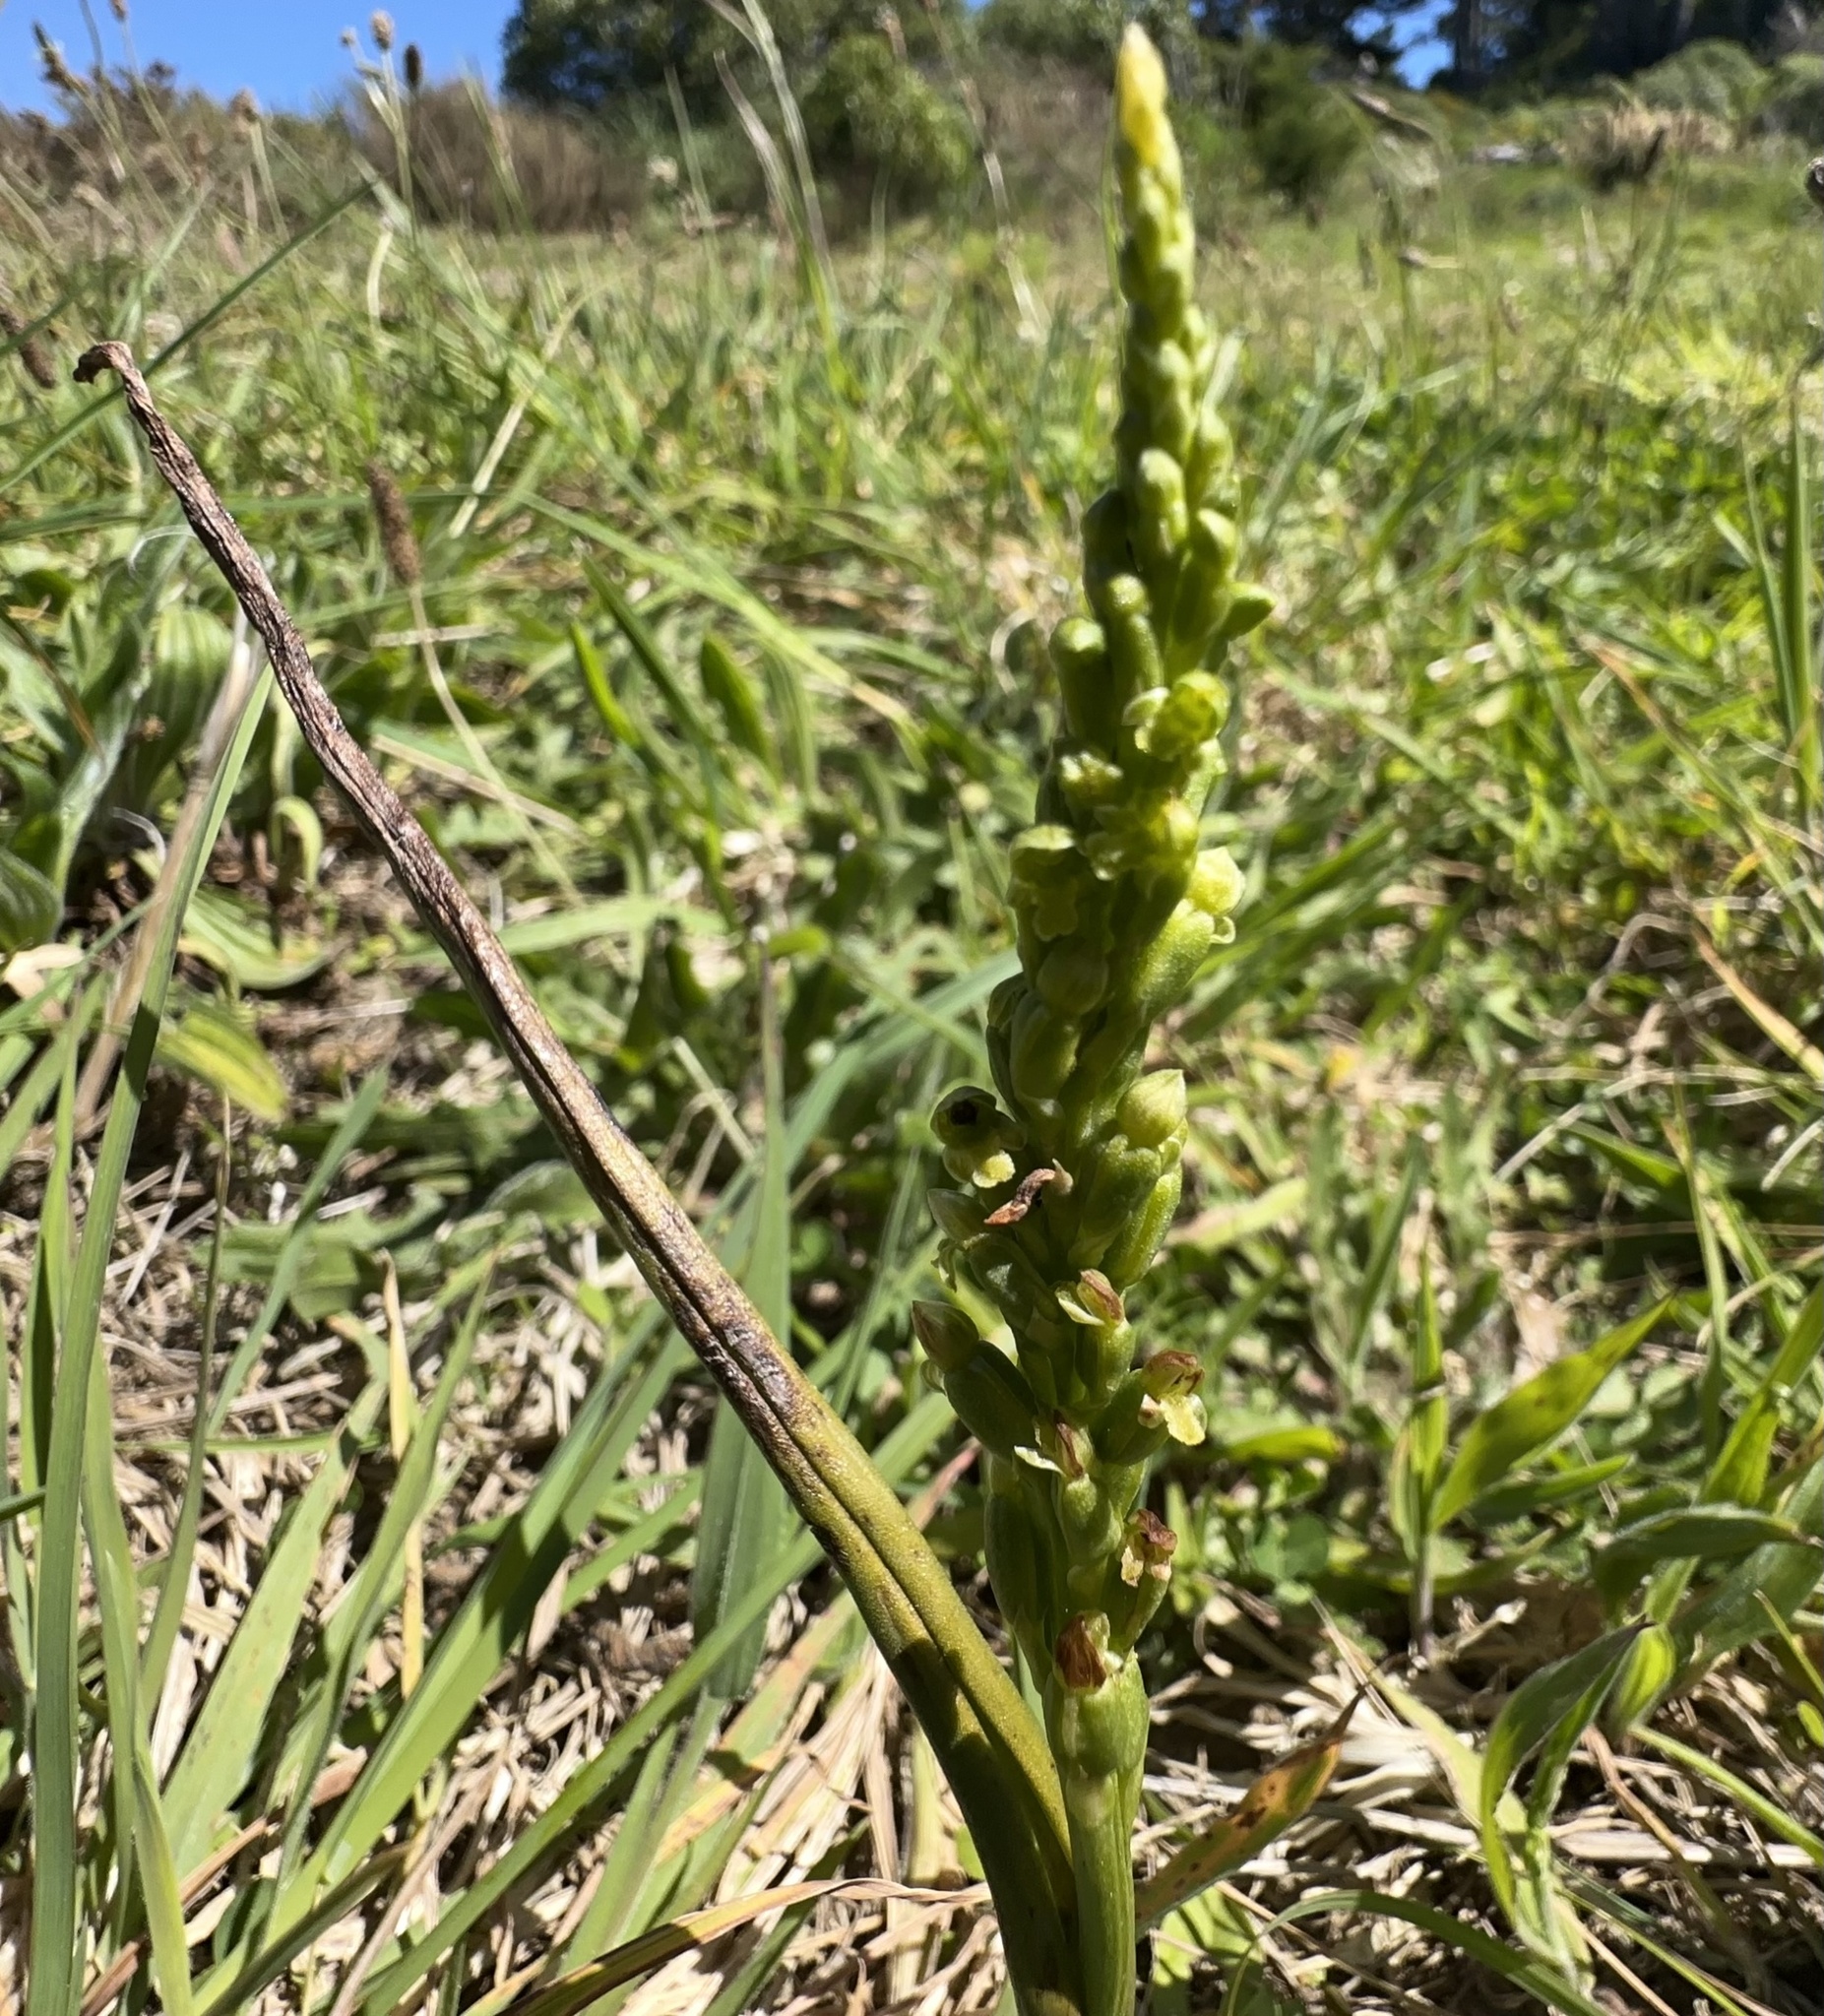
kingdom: Plantae
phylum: Tracheophyta
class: Liliopsida
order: Asparagales
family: Orchidaceae
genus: Microtis
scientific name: Microtis unifolia
